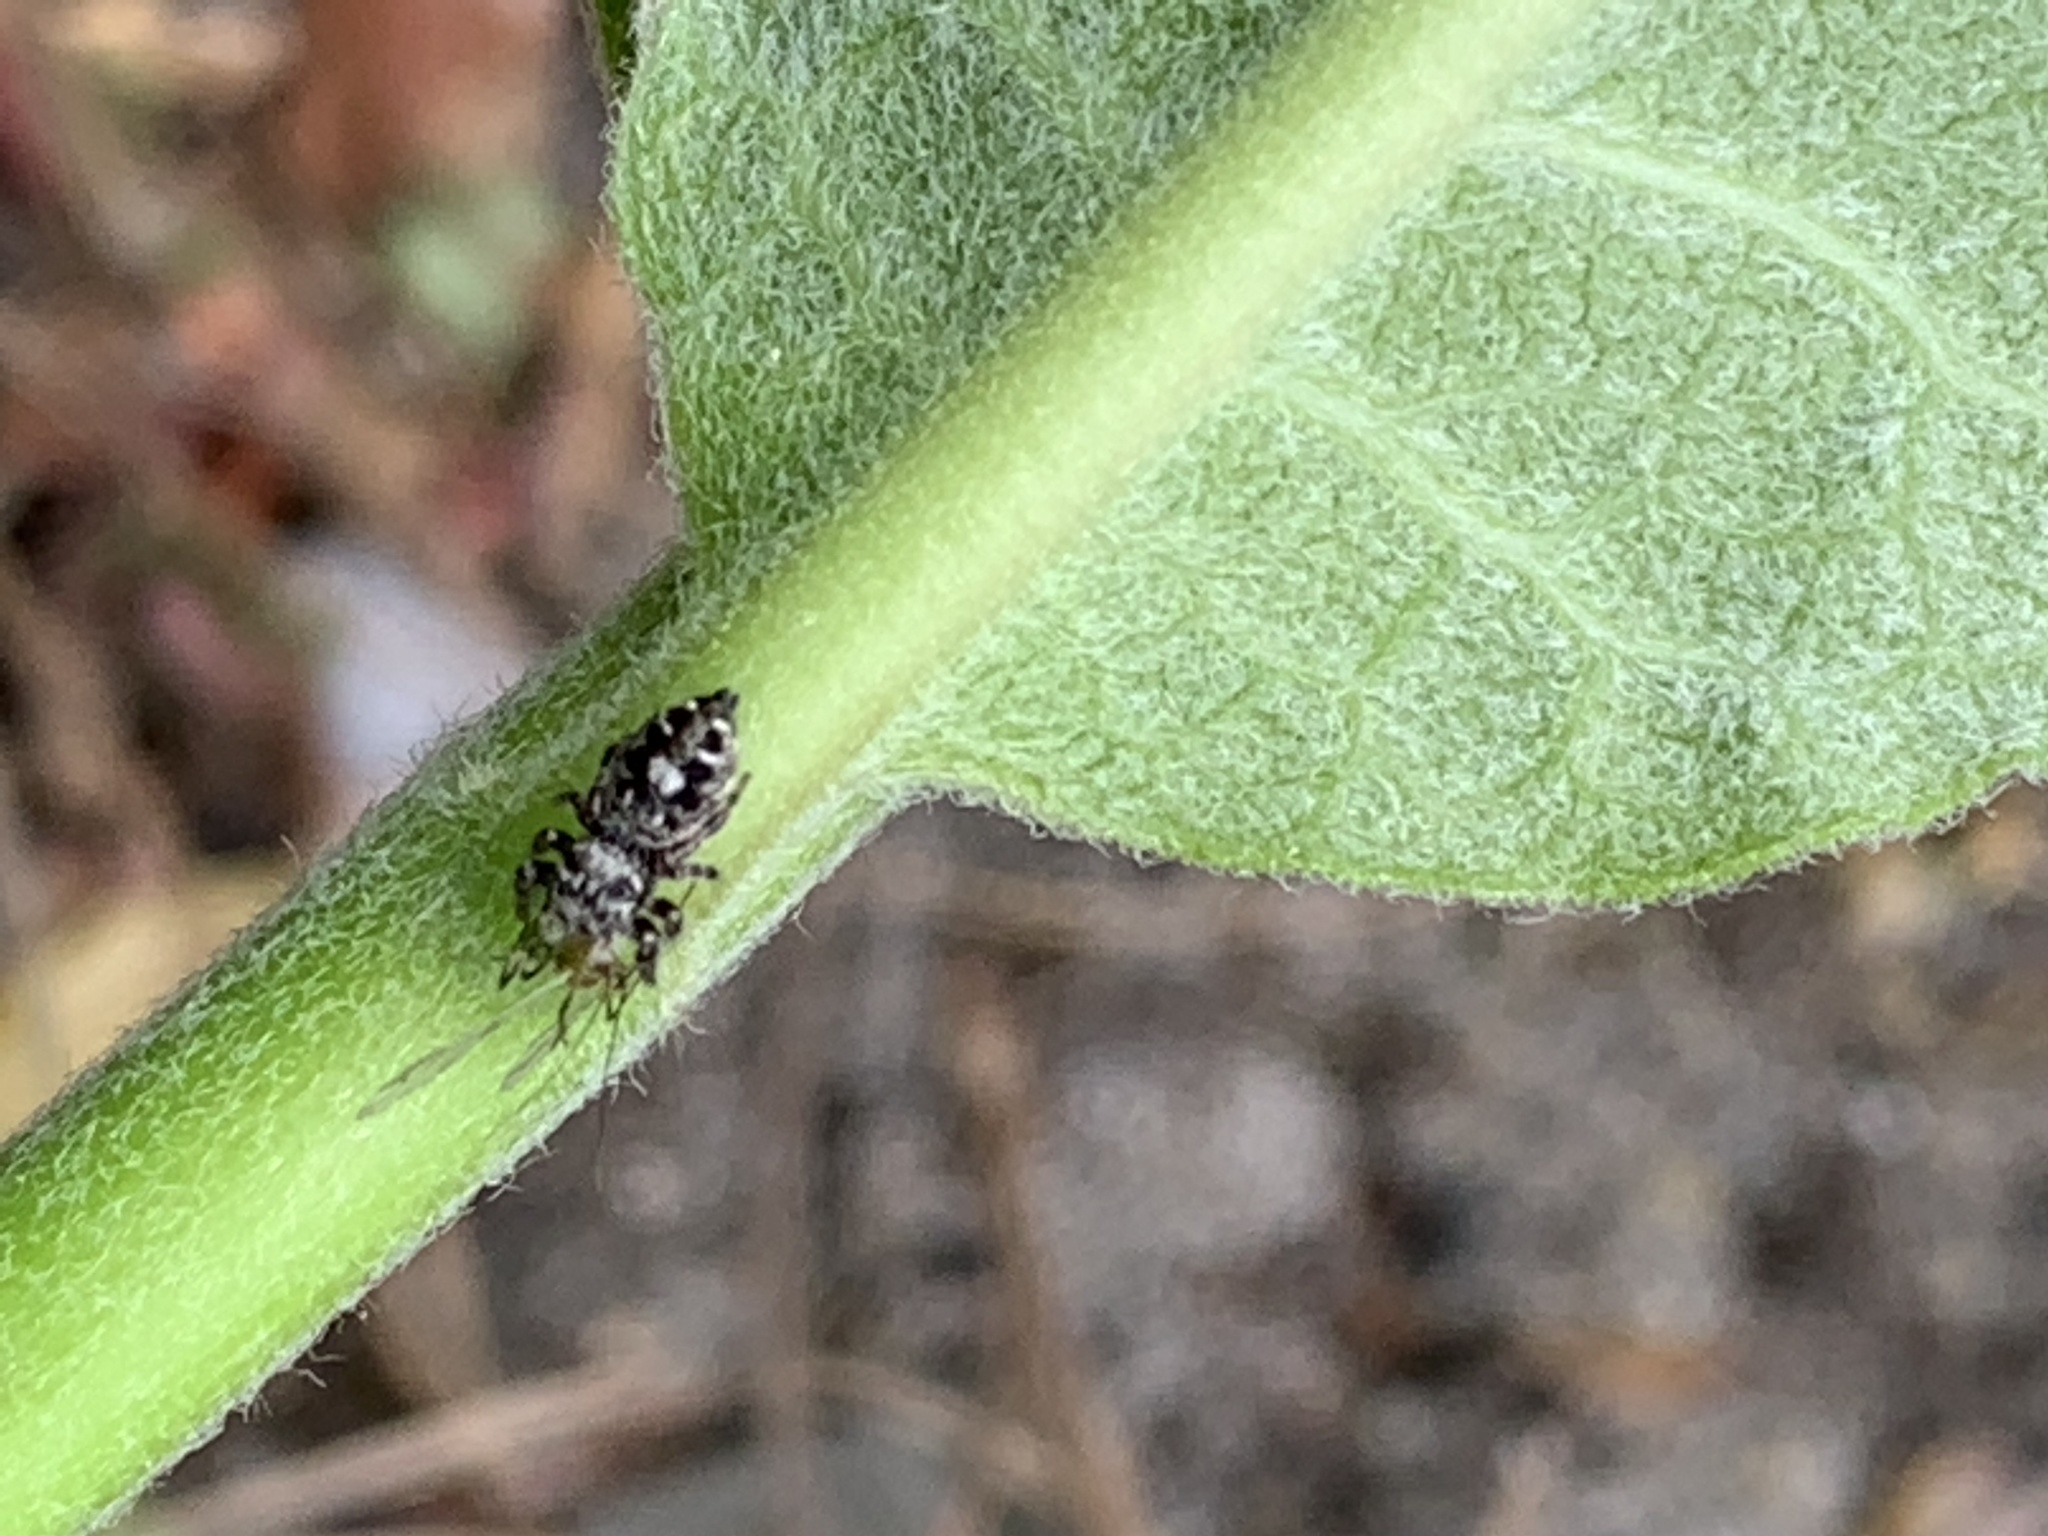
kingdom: Animalia
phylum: Arthropoda
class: Arachnida
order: Araneae
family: Salticidae
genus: Phidippus
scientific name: Phidippus putnami
